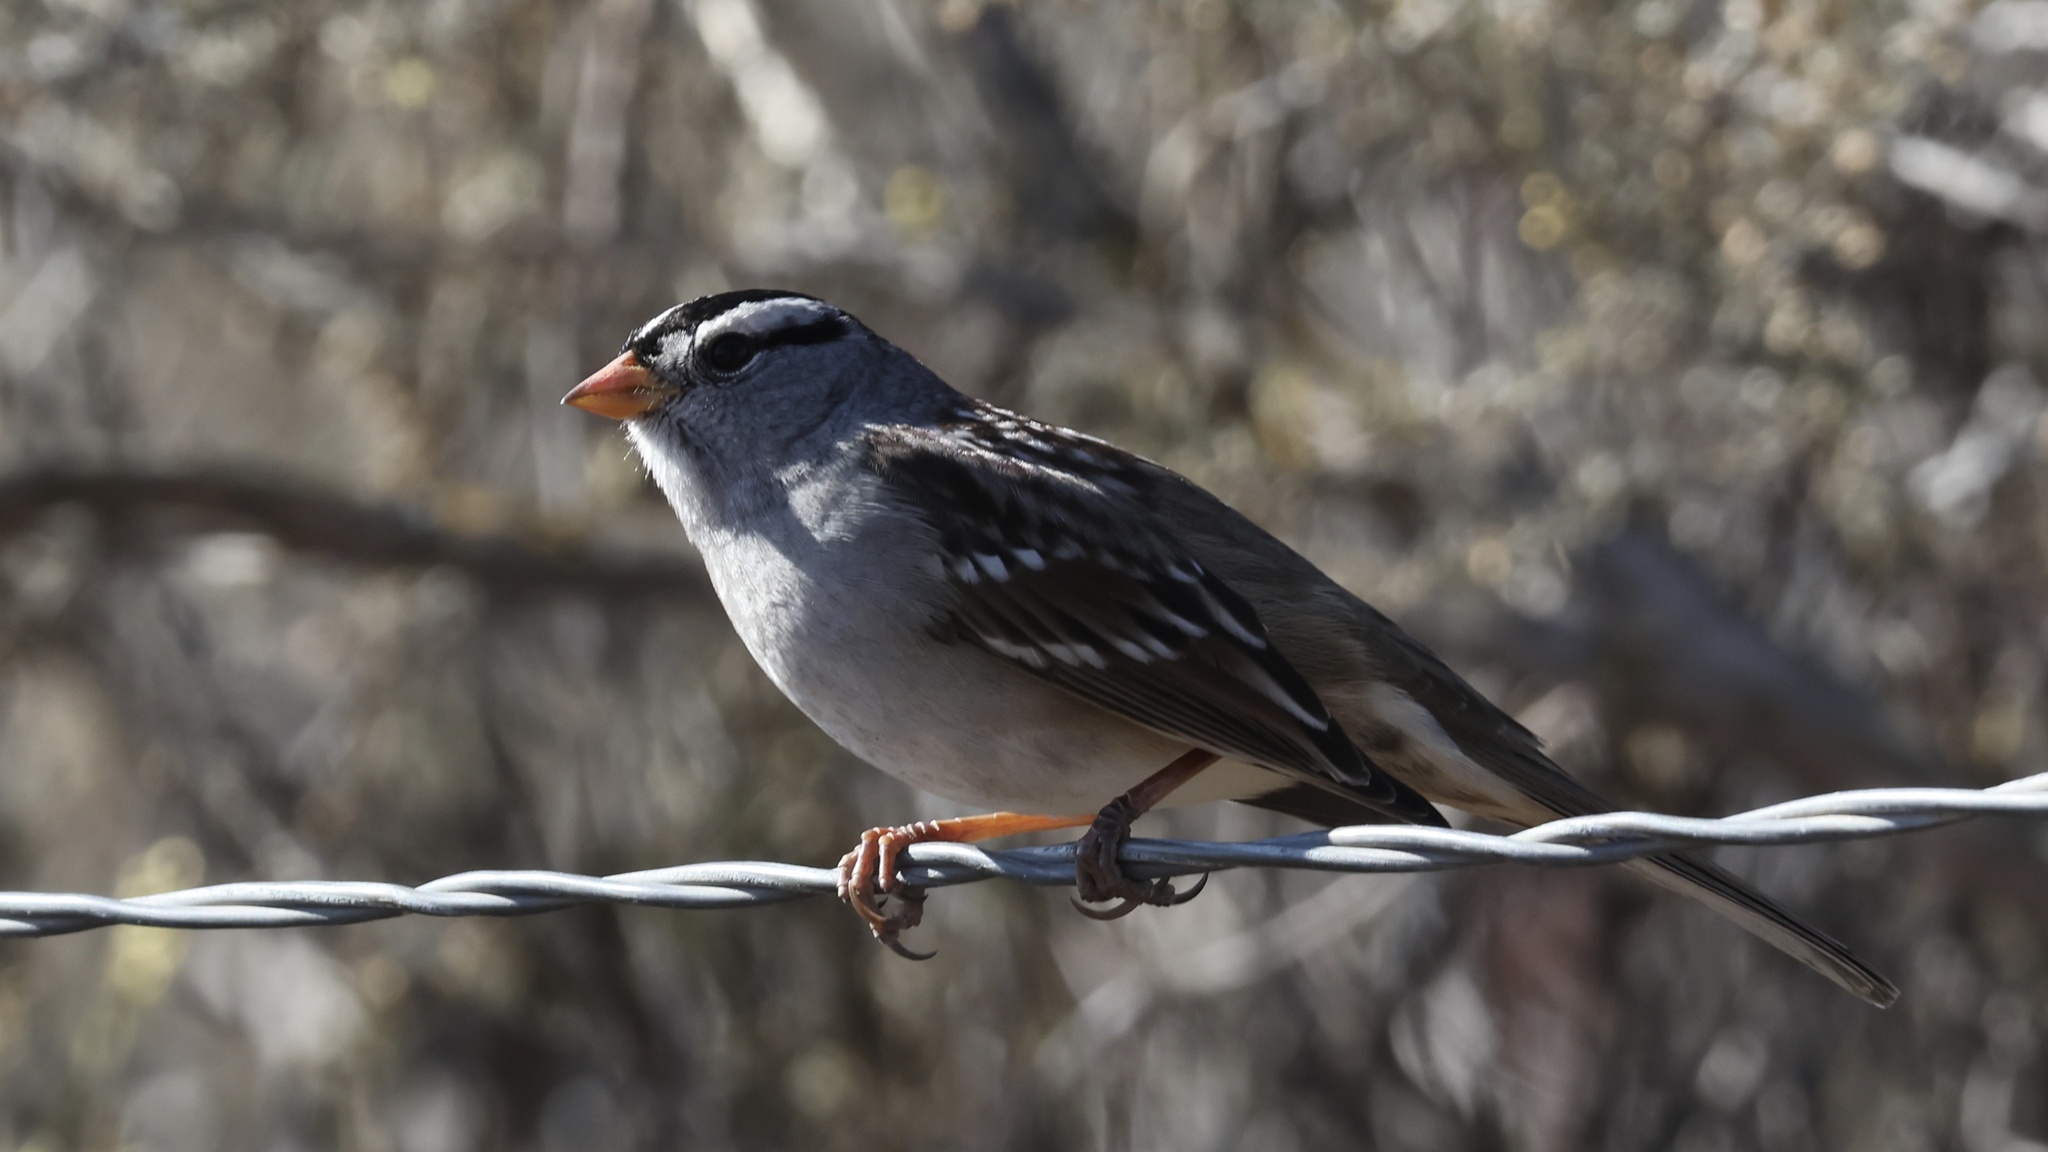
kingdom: Animalia
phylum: Chordata
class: Aves
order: Passeriformes
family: Passerellidae
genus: Zonotrichia
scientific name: Zonotrichia leucophrys
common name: White-crowned sparrow
